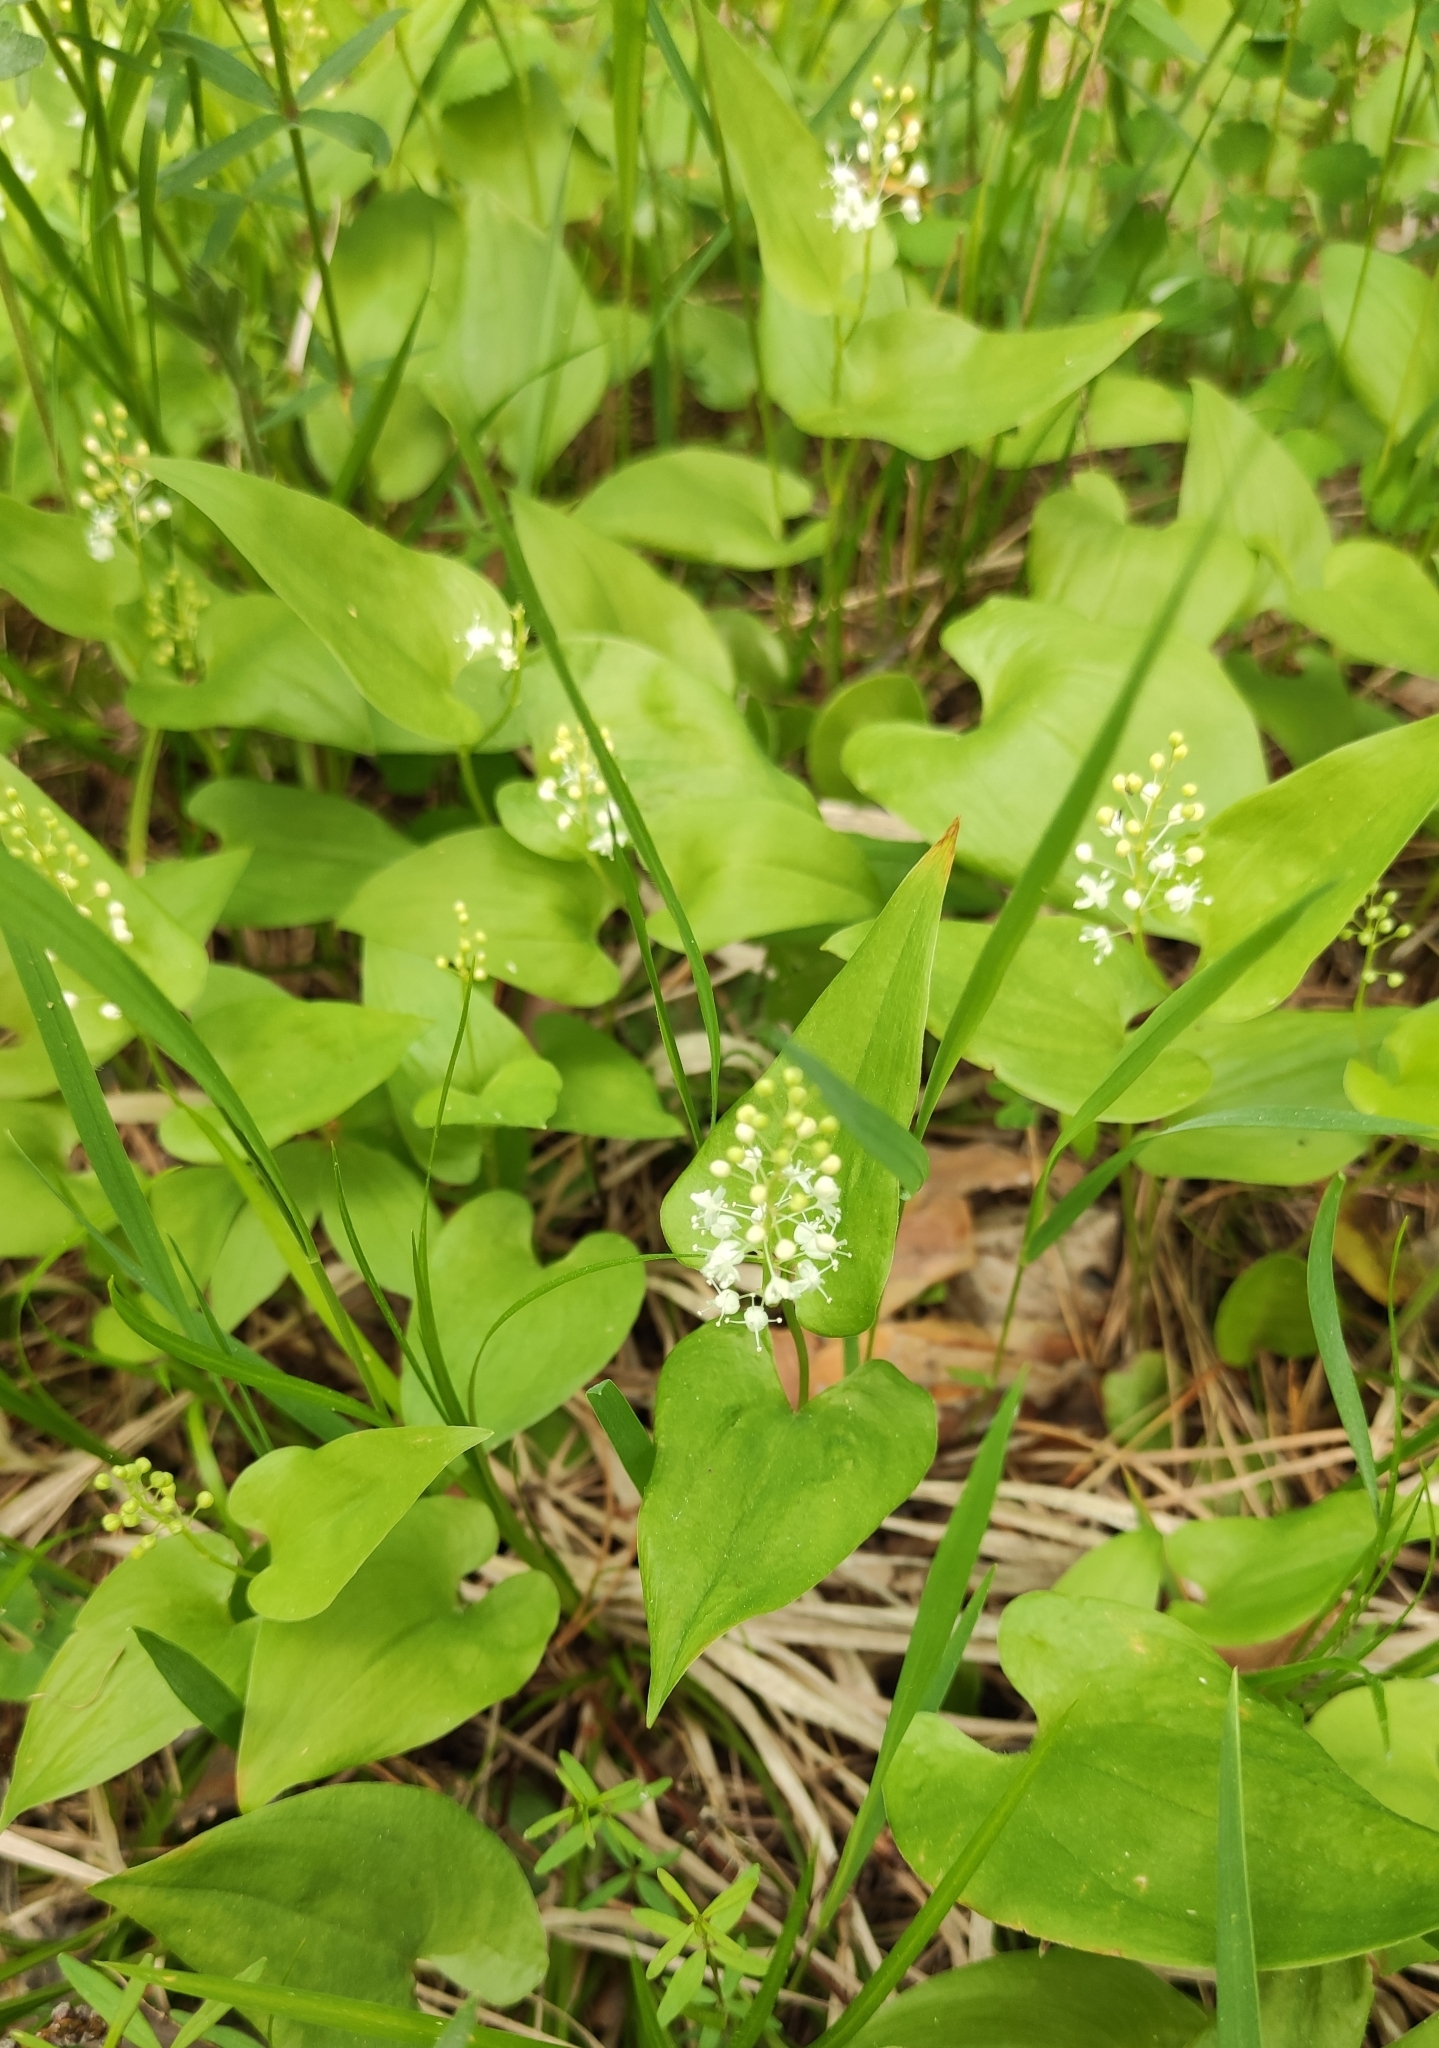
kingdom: Plantae
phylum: Tracheophyta
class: Liliopsida
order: Asparagales
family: Asparagaceae
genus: Maianthemum
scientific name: Maianthemum bifolium
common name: May lily
